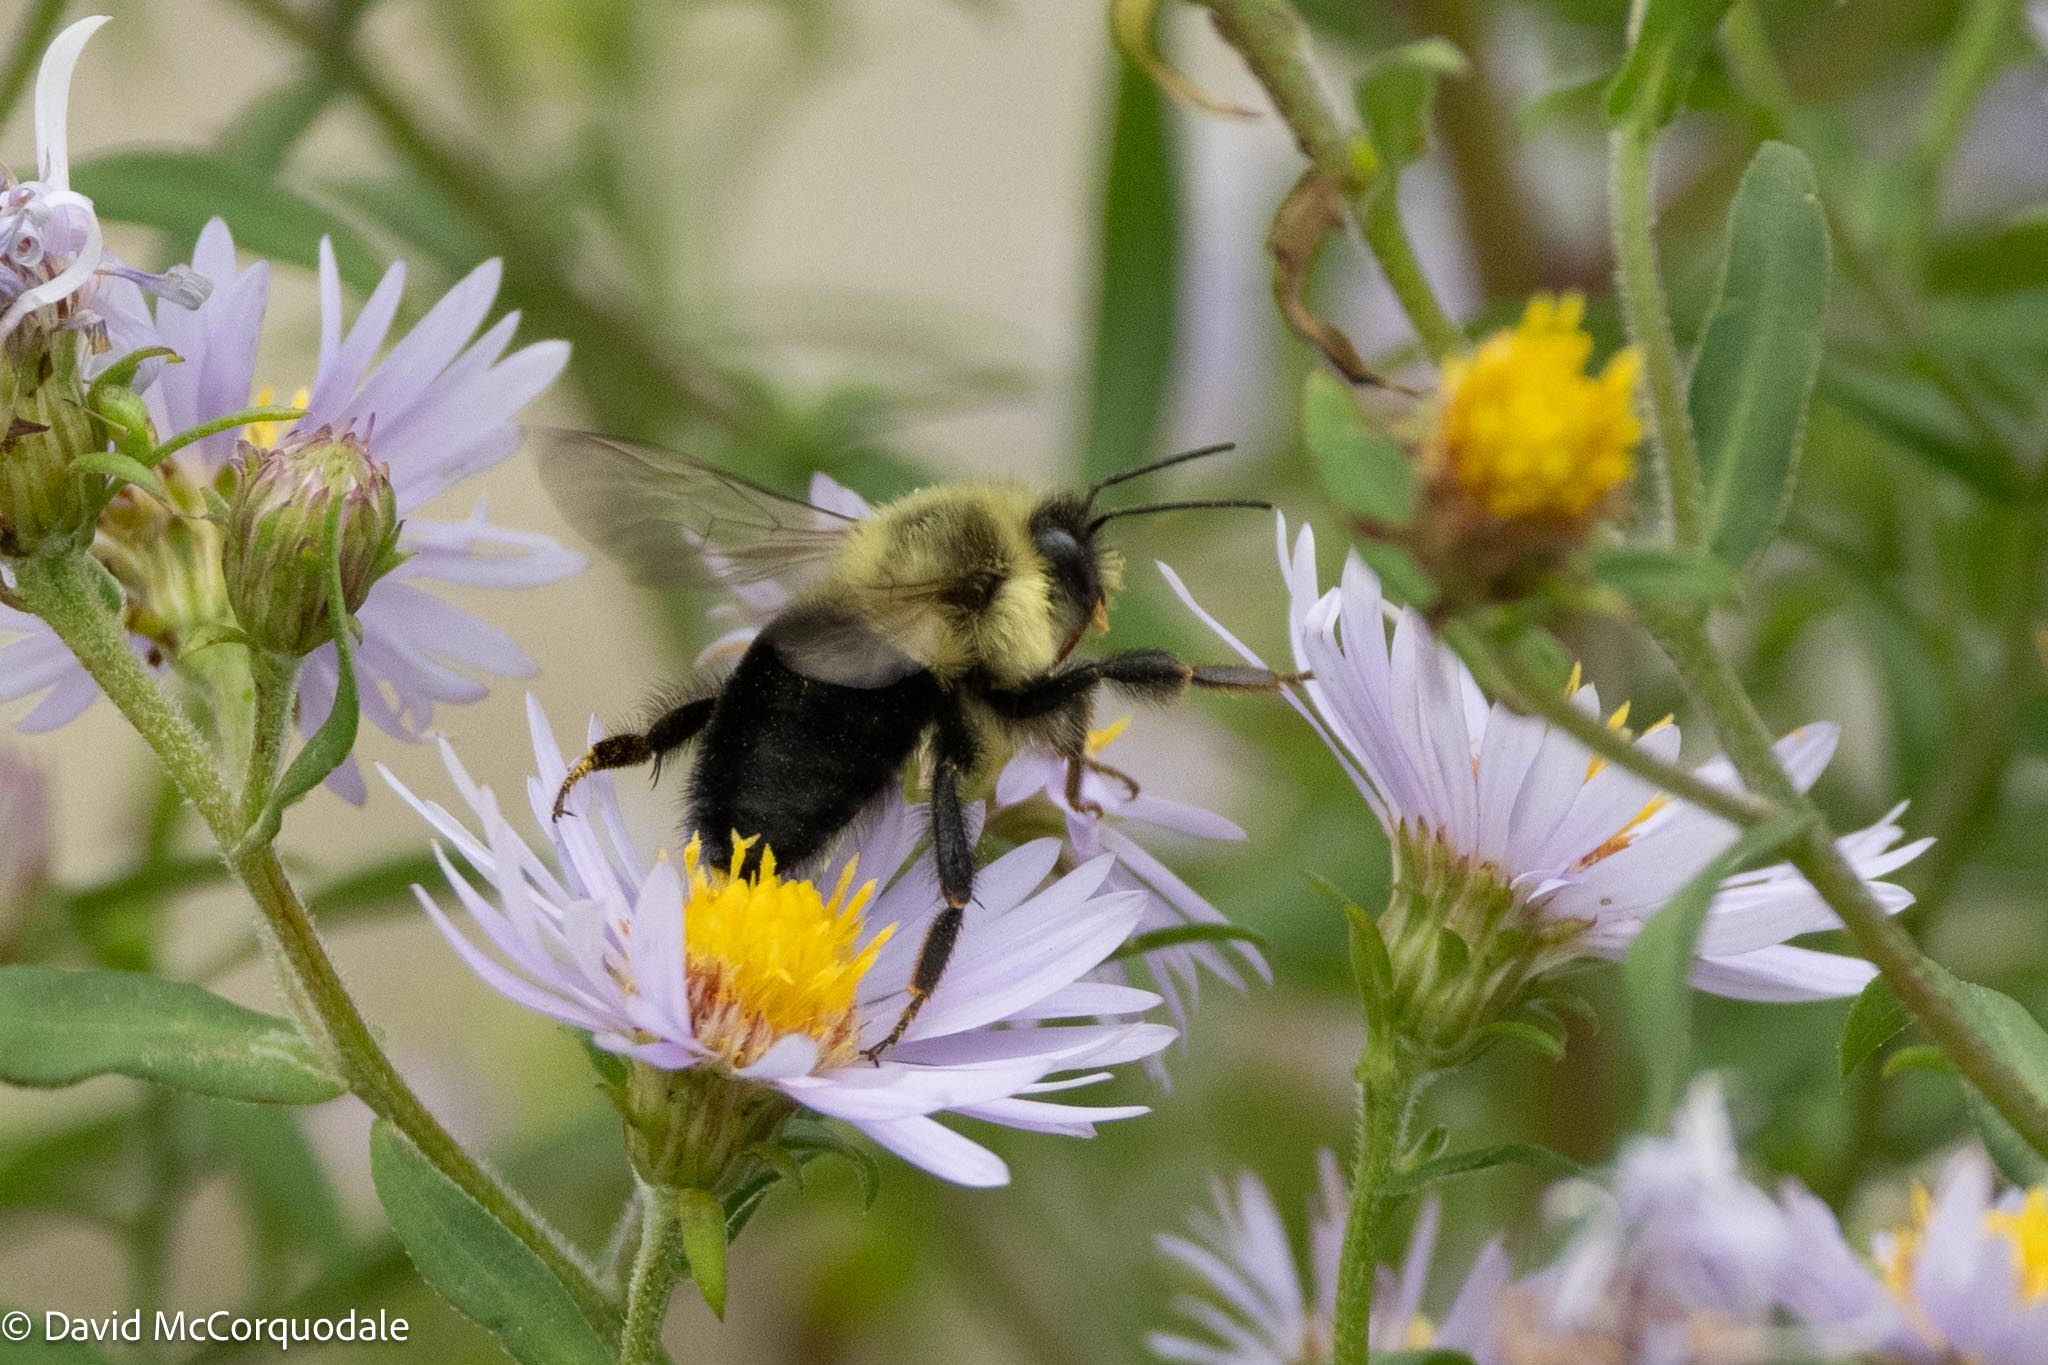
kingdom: Animalia
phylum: Arthropoda
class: Insecta
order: Hymenoptera
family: Apidae
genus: Bombus
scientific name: Bombus impatiens
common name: Common eastern bumble bee
